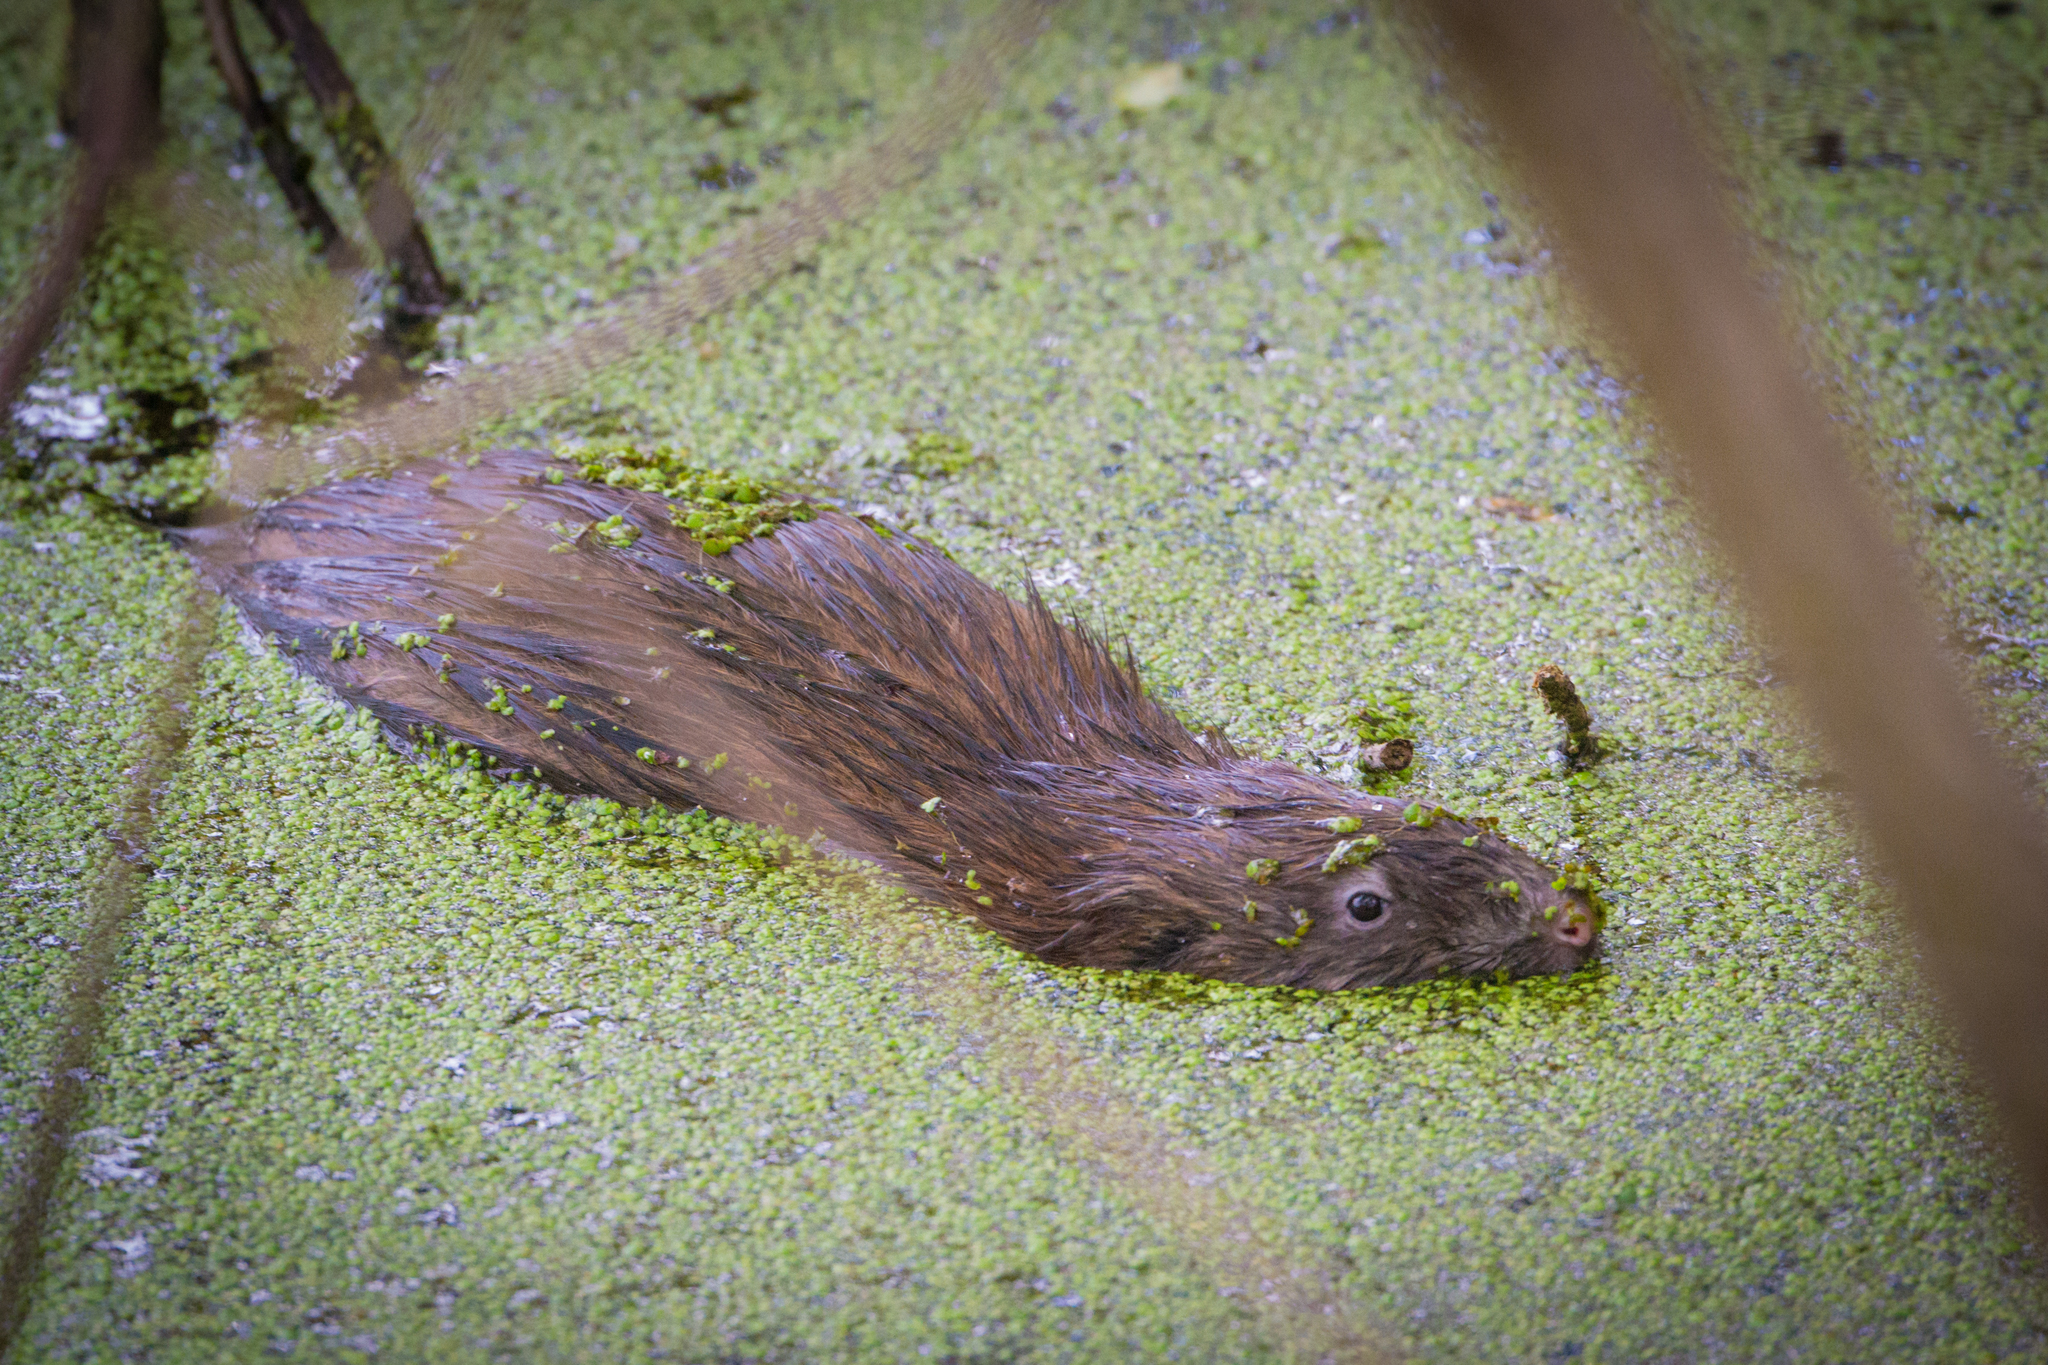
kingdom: Animalia
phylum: Chordata
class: Mammalia
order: Rodentia
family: Cricetidae
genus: Ondatra
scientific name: Ondatra zibethicus
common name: Muskrat
